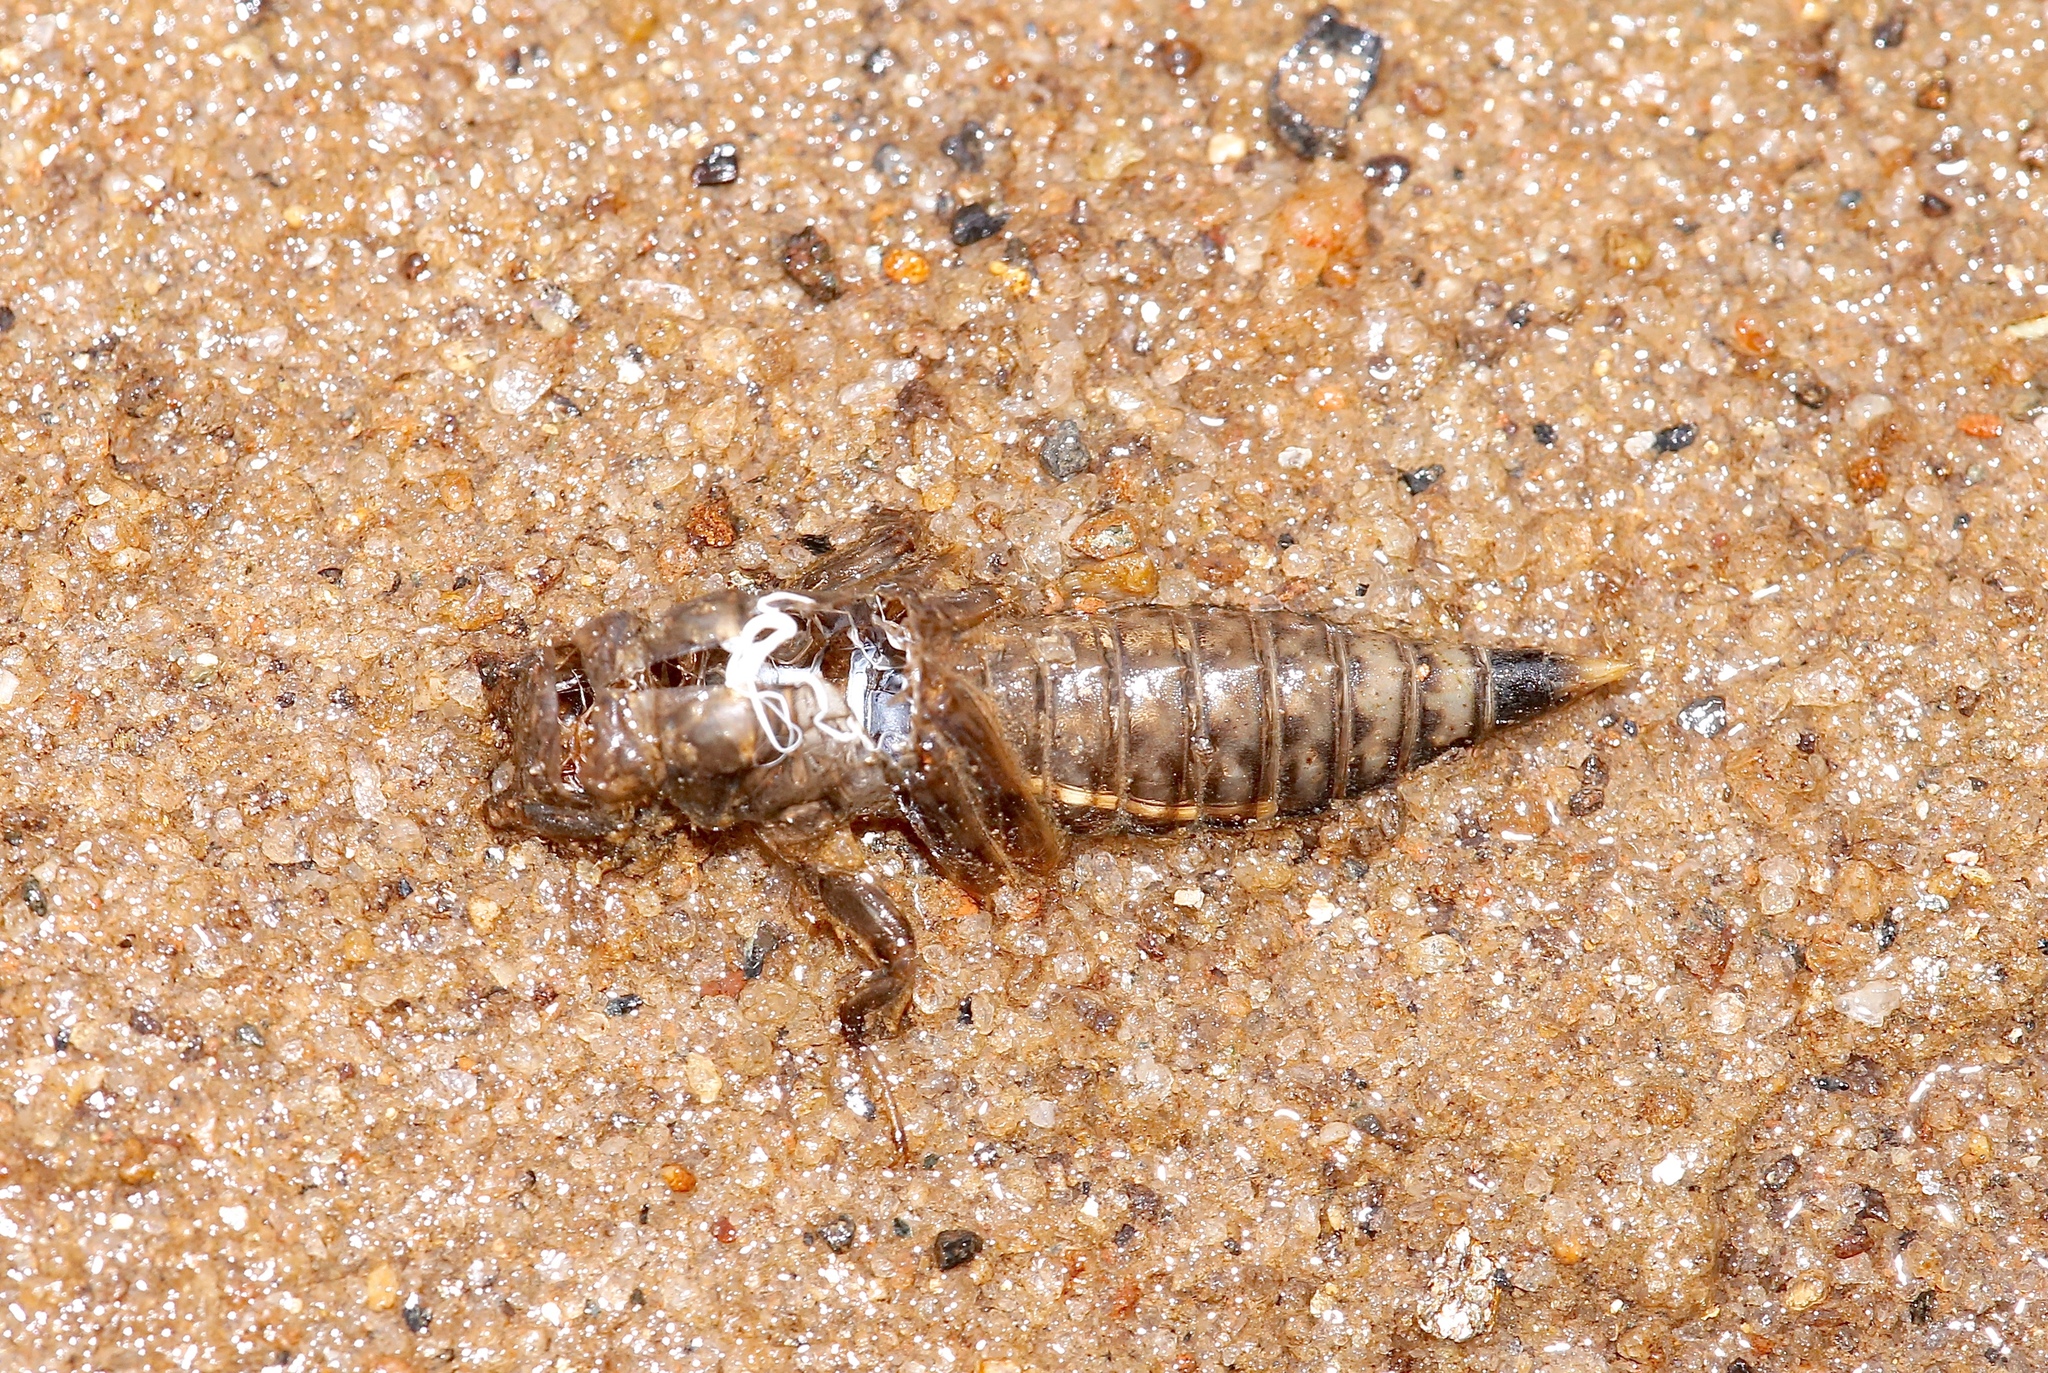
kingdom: Animalia
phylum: Arthropoda
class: Insecta
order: Odonata
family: Gomphidae
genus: Progomphus
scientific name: Progomphus obscurus
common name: Common sanddragon
